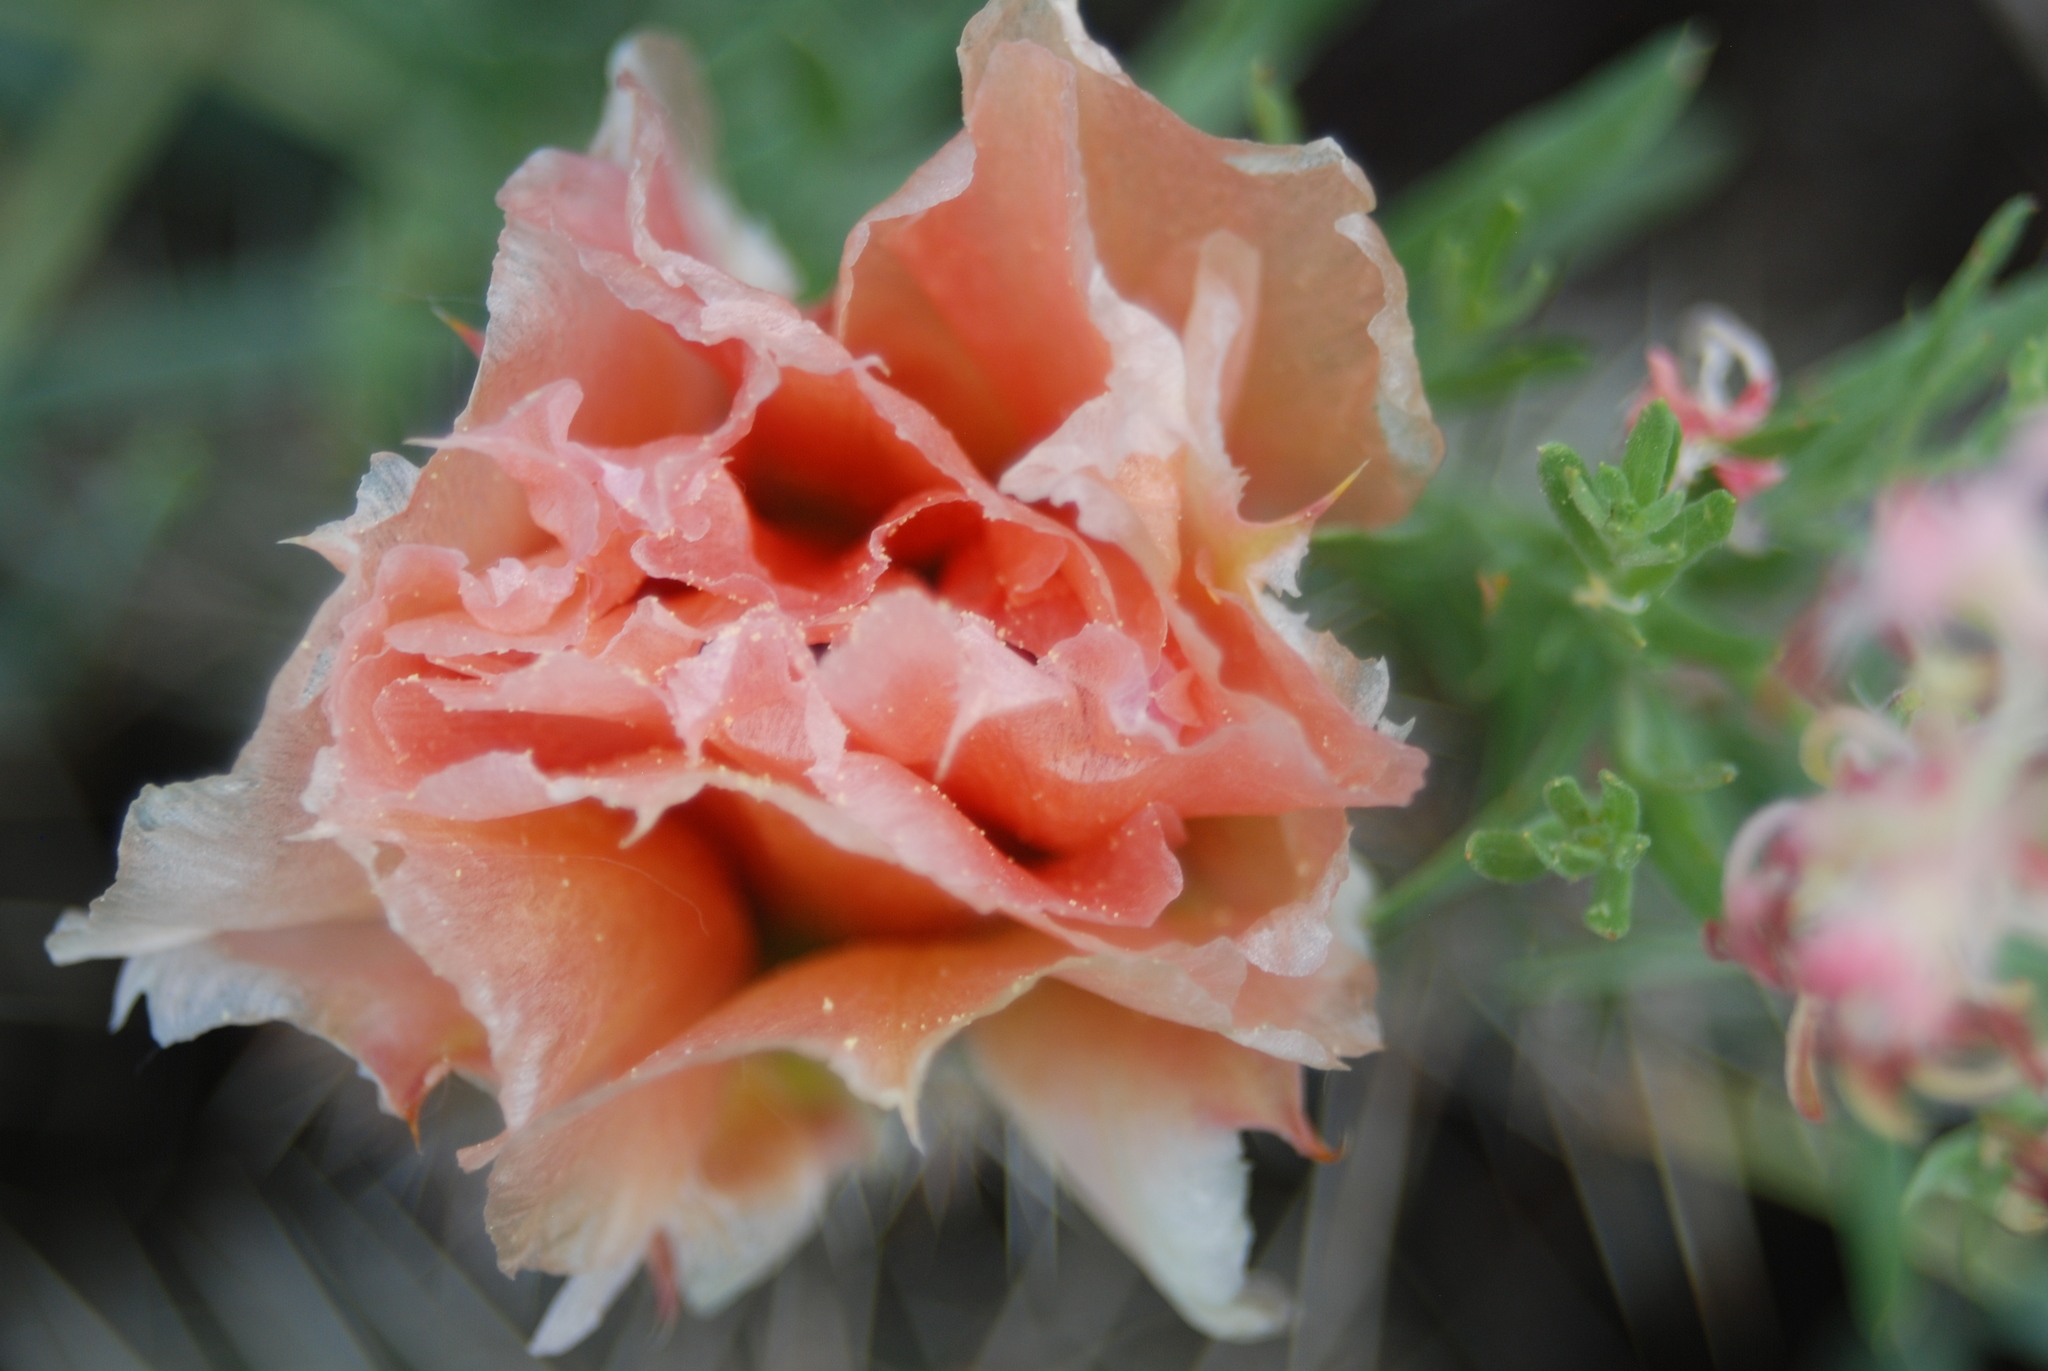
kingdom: Plantae
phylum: Tracheophyta
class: Magnoliopsida
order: Caryophyllales
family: Cactaceae
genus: Opuntia
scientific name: Opuntia
